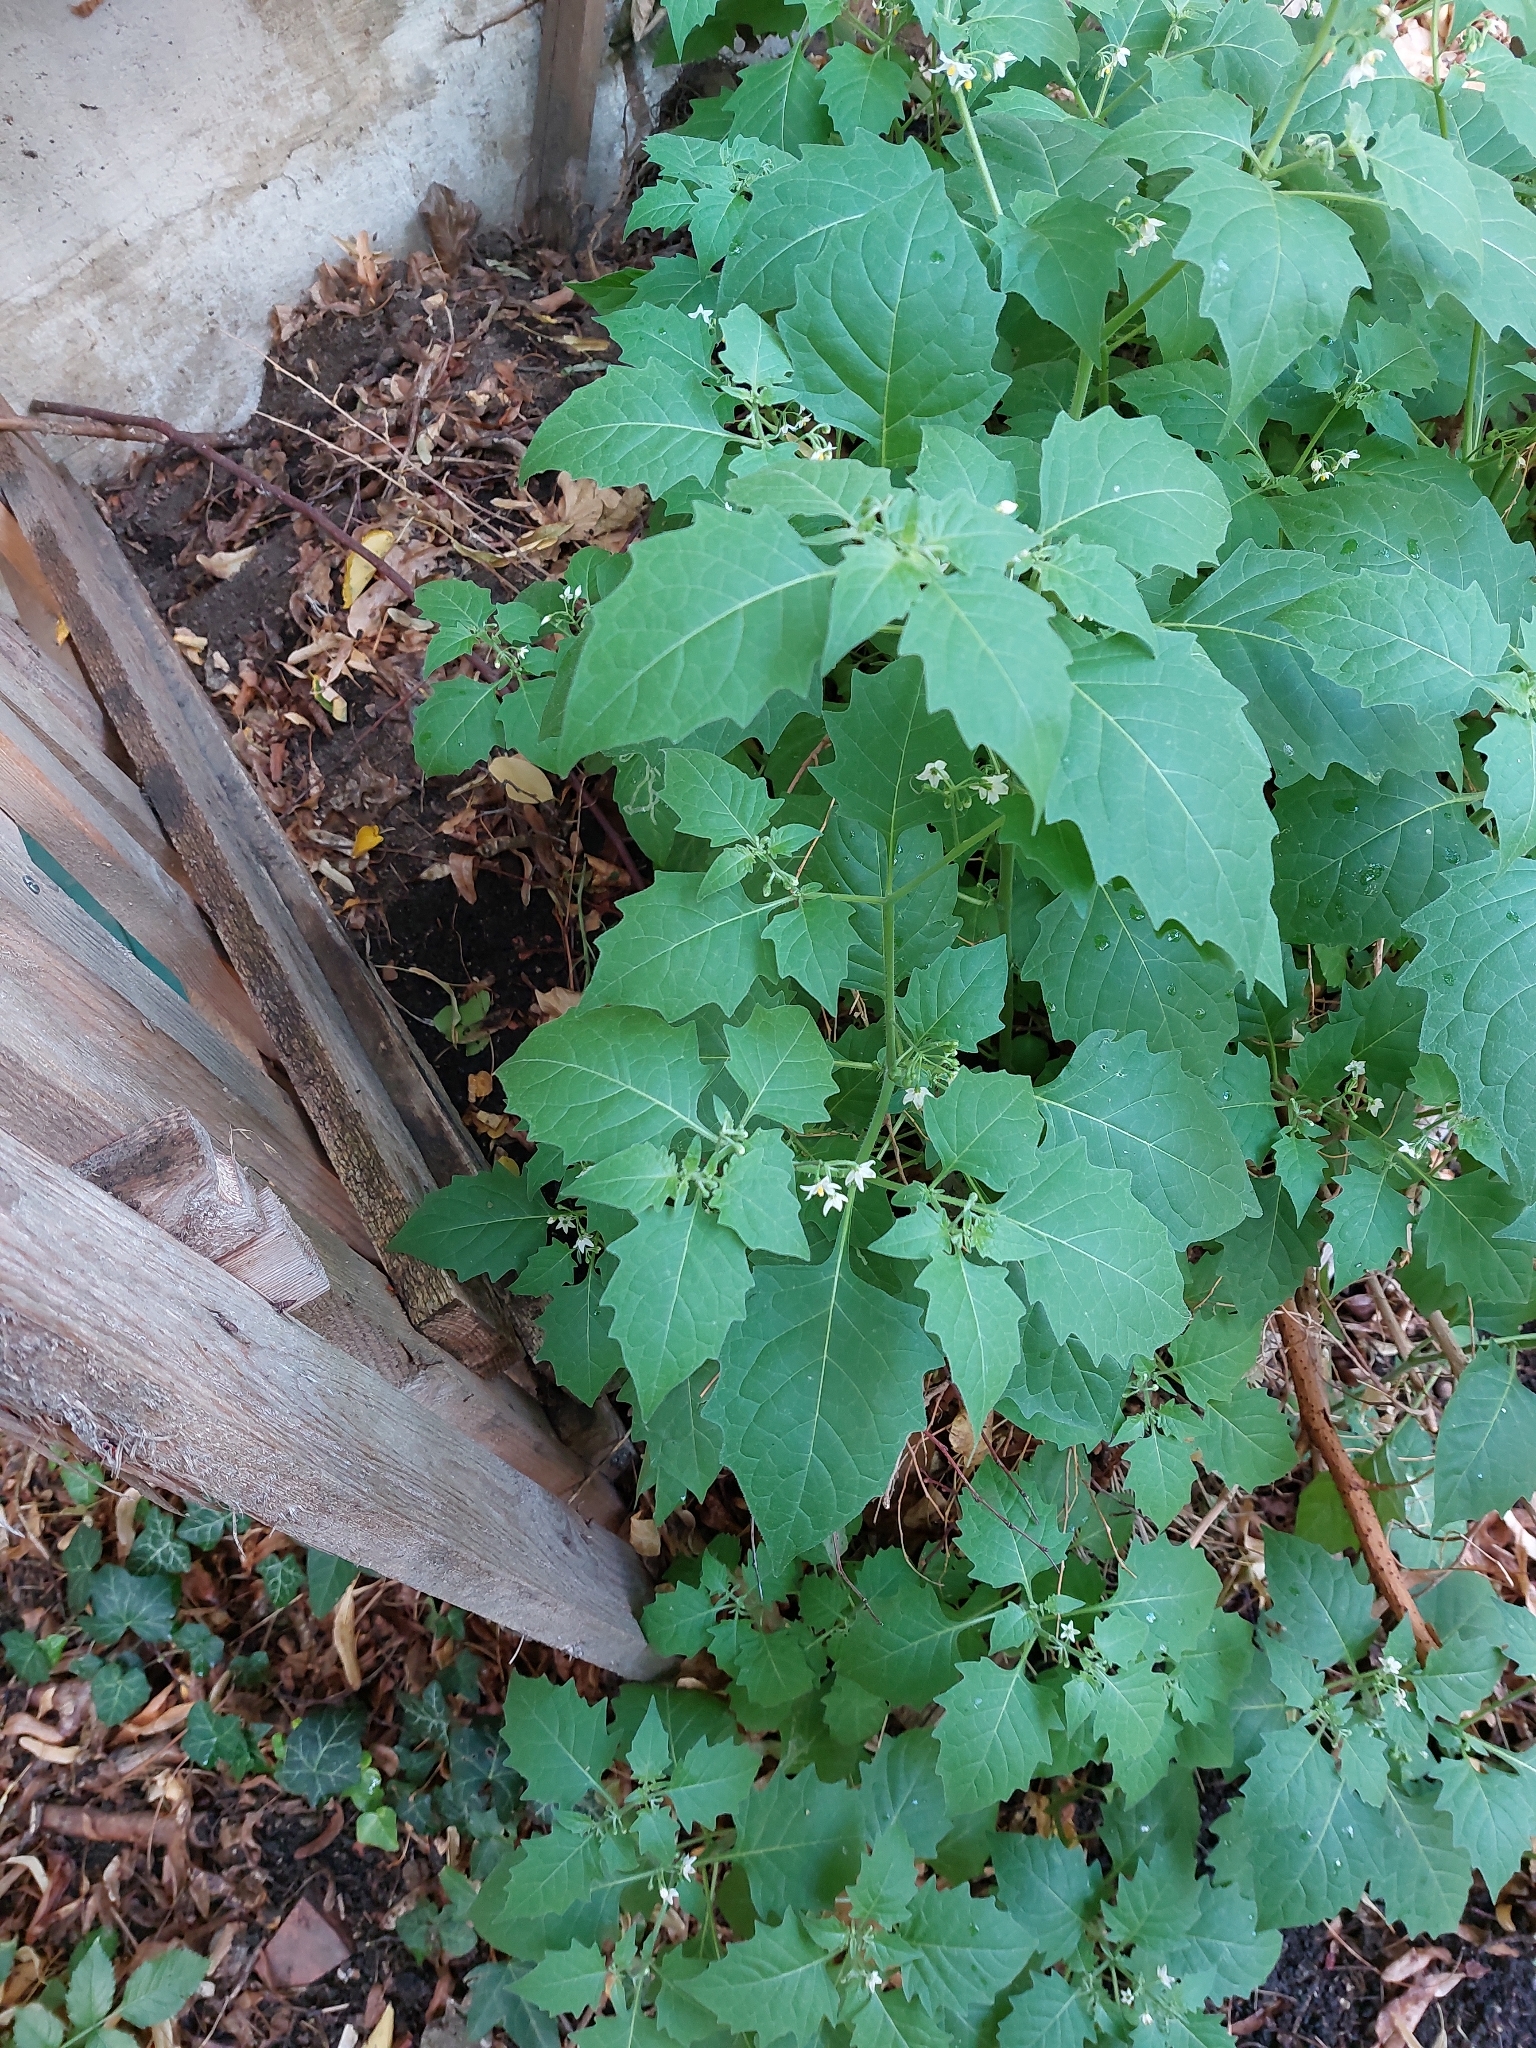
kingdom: Plantae
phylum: Tracheophyta
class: Magnoliopsida
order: Solanales
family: Solanaceae
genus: Solanum
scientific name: Solanum nigrum
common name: Black nightshade
